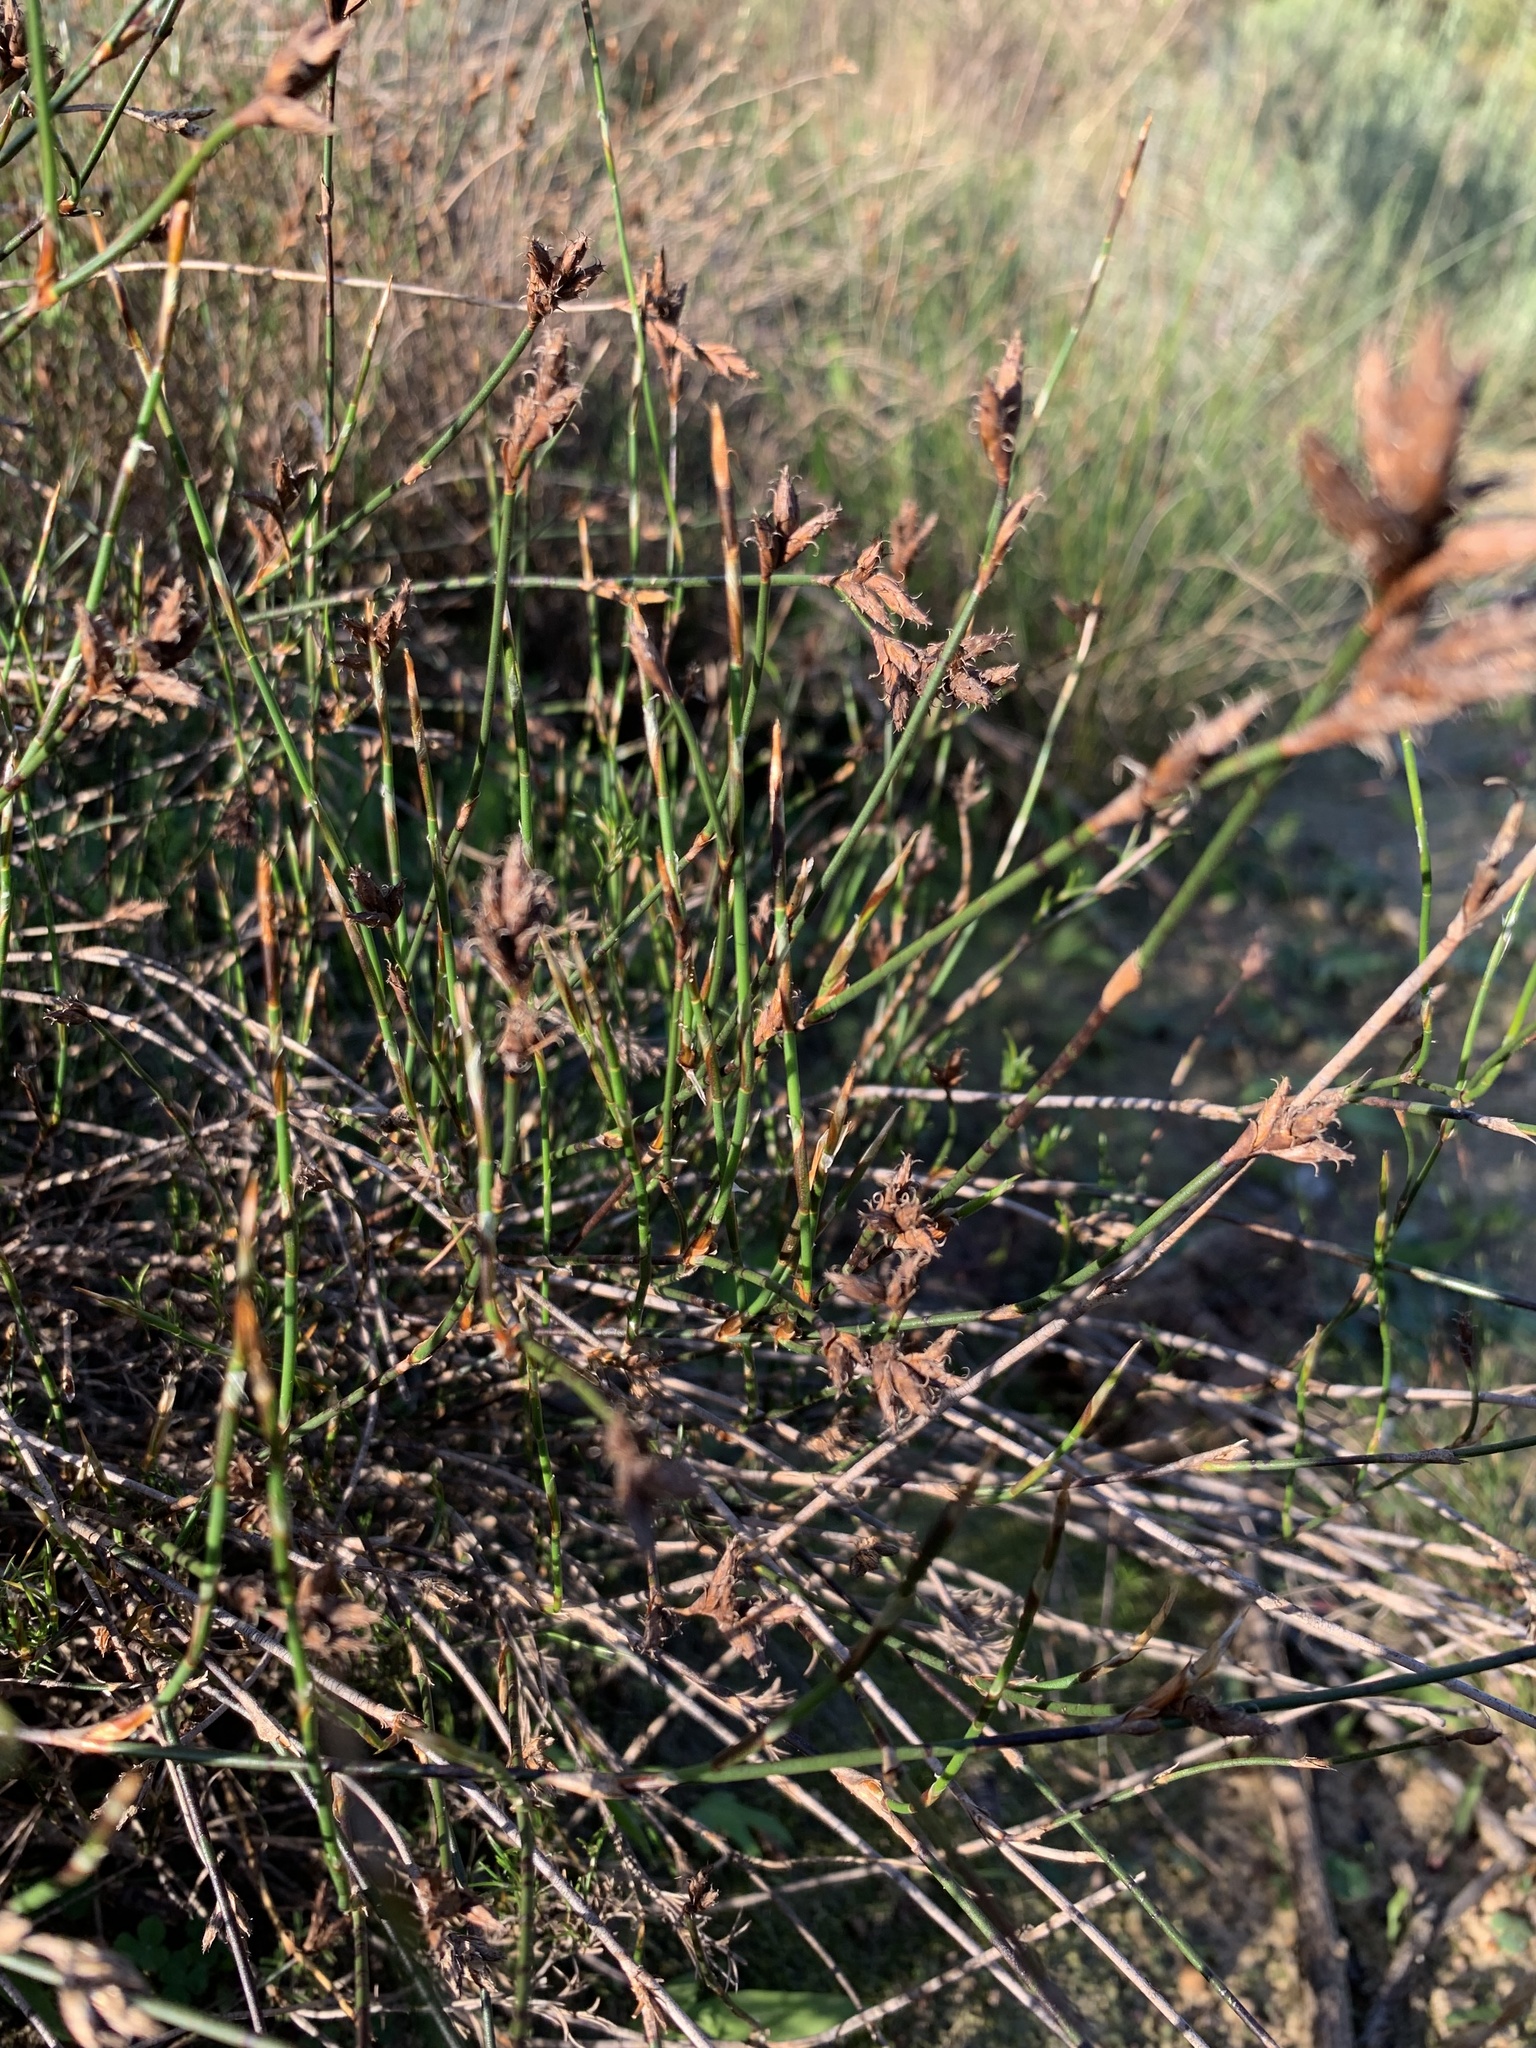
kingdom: Plantae
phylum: Tracheophyta
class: Liliopsida
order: Poales
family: Restionaceae
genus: Restio
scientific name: Restio capensis
